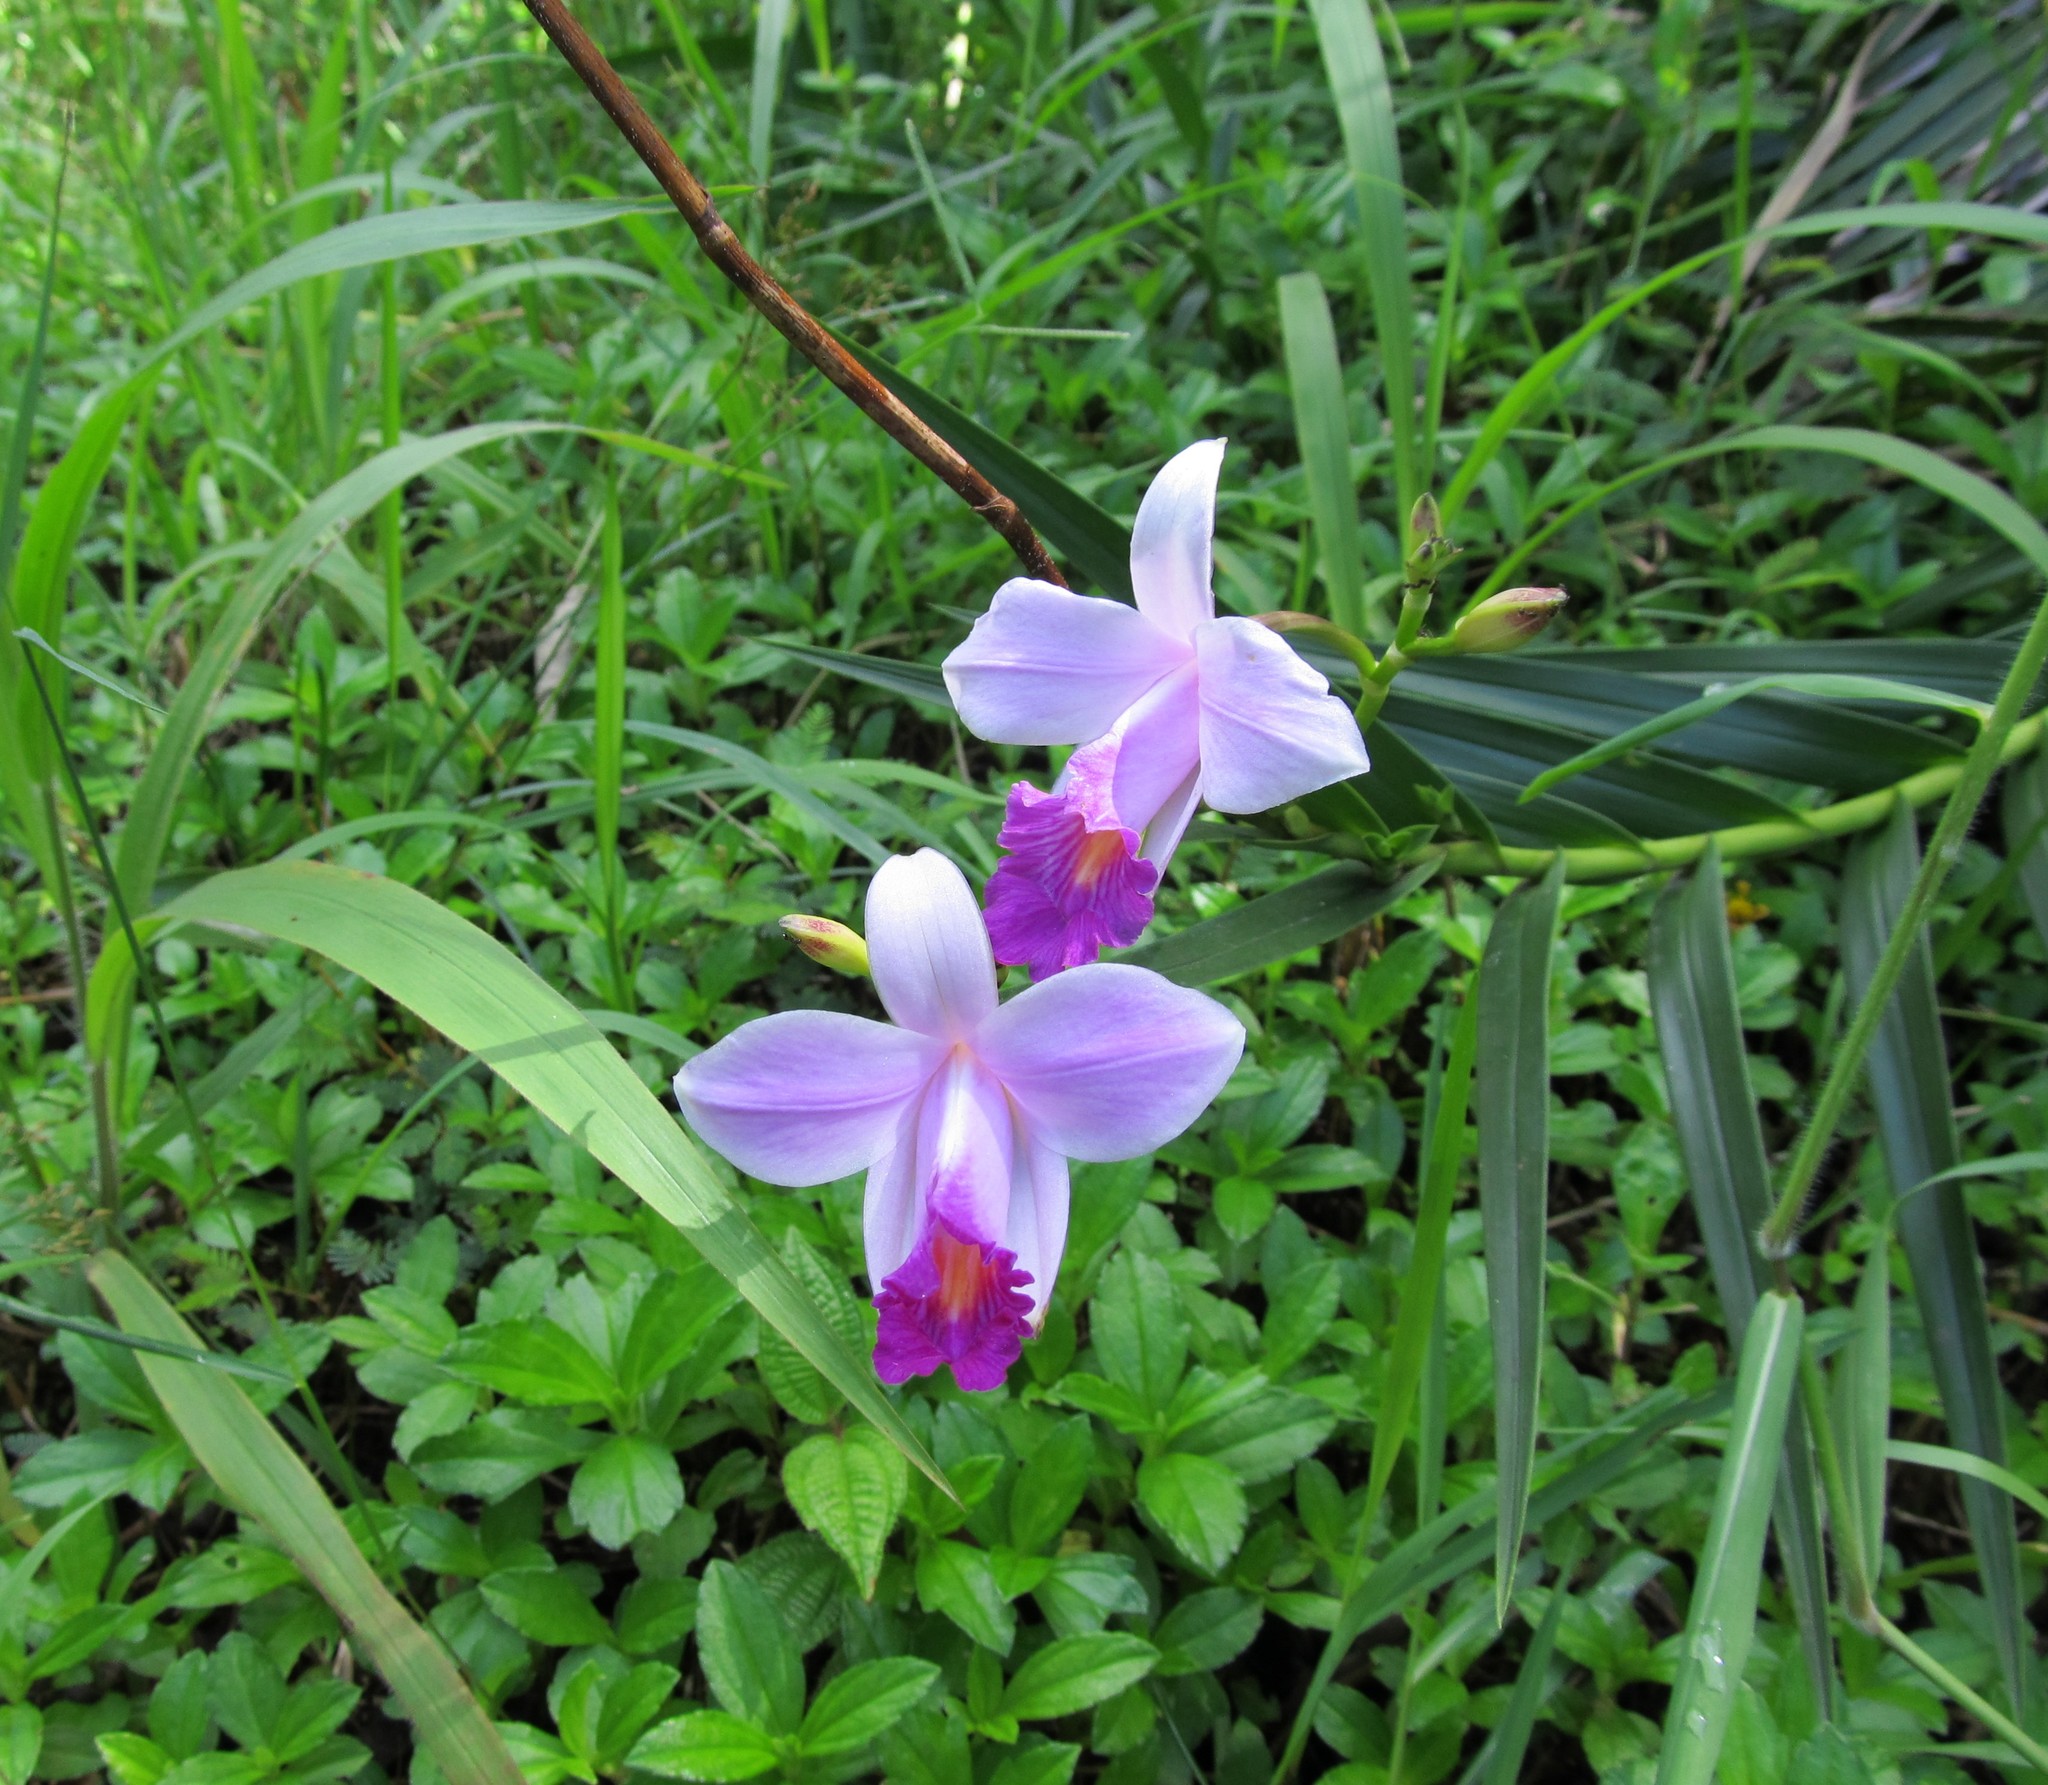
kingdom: Plantae
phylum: Tracheophyta
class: Liliopsida
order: Asparagales
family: Orchidaceae
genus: Arundina
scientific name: Arundina graminifolia
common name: Bamboo orchid
